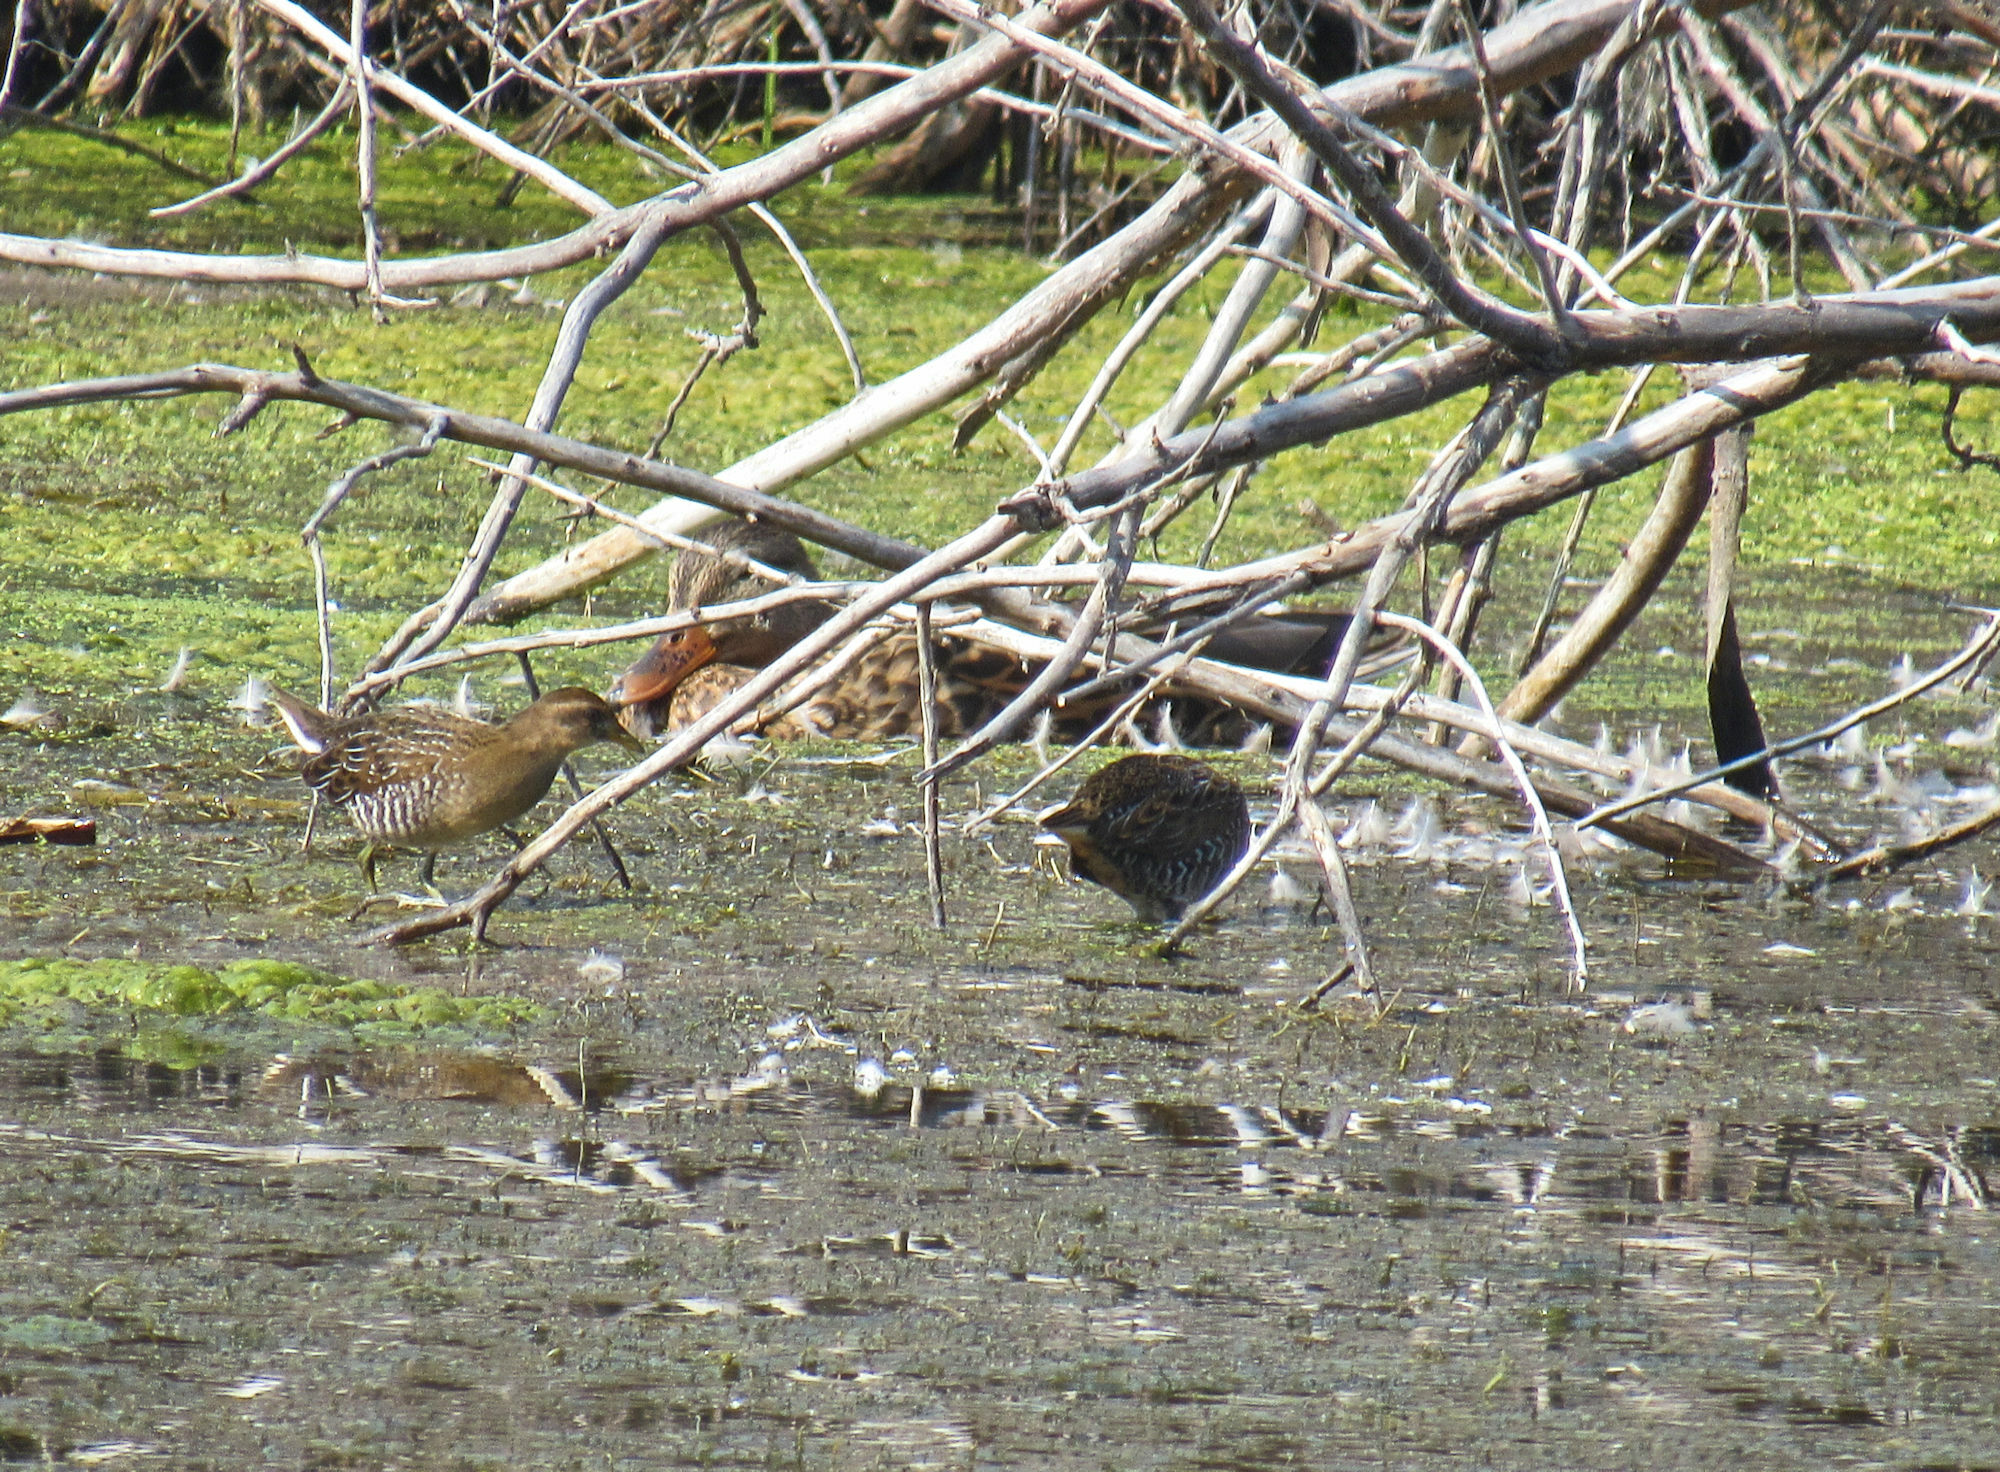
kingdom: Animalia
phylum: Chordata
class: Aves
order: Gruiformes
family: Rallidae
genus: Porzana
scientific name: Porzana carolina
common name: Sora
